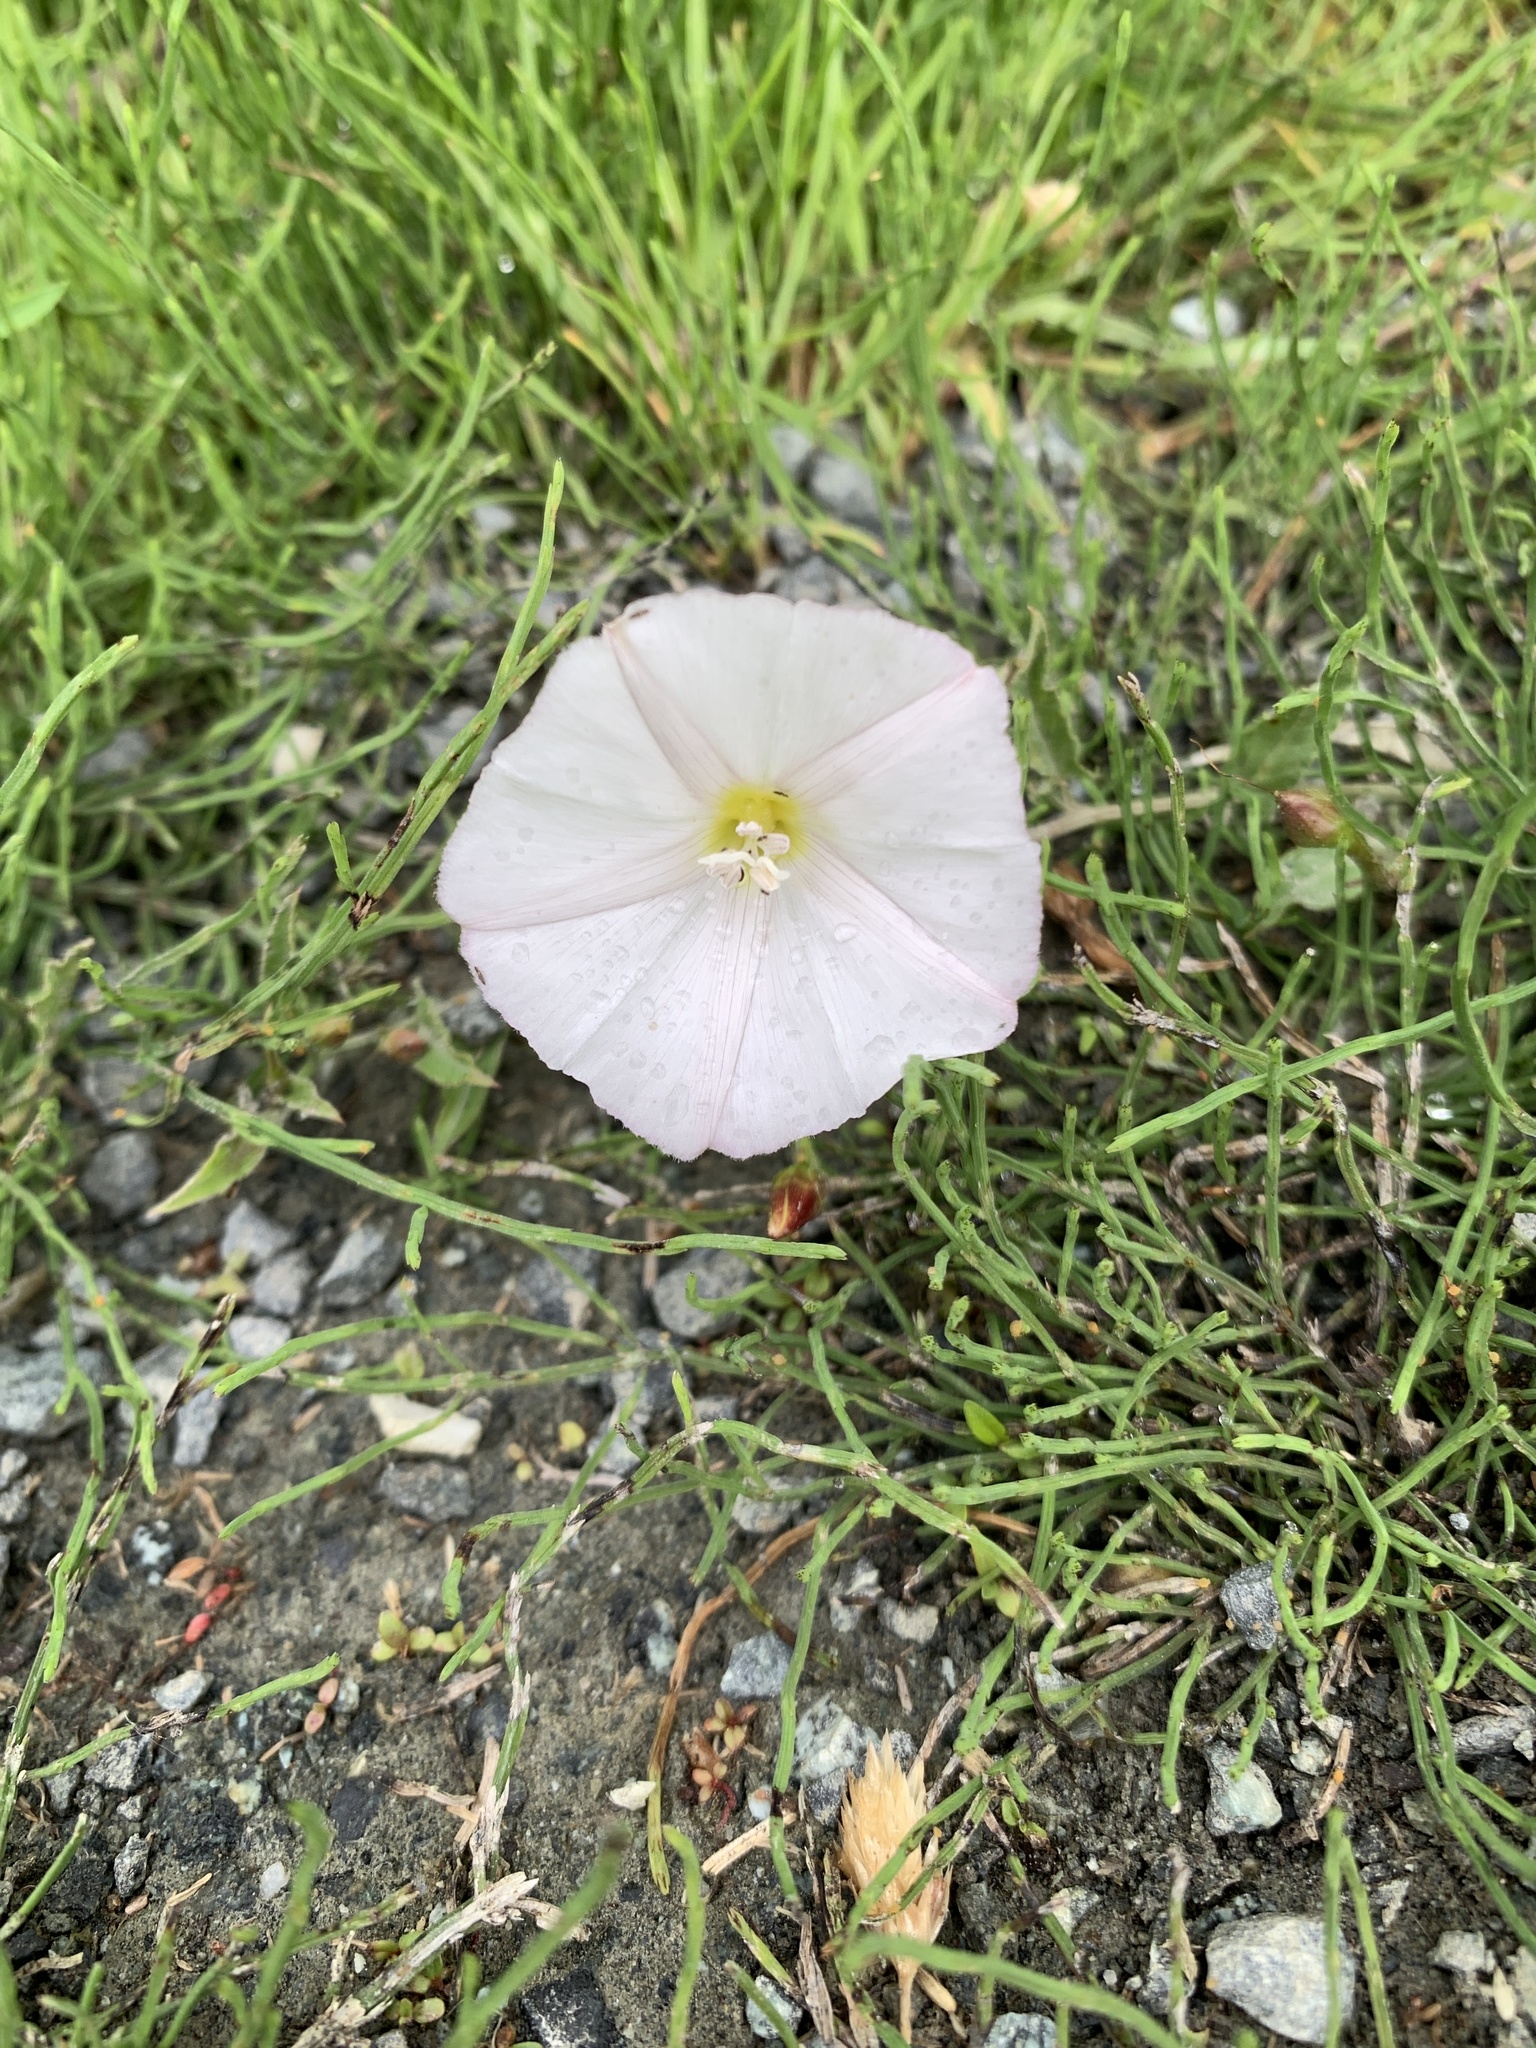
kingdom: Plantae
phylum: Tracheophyta
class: Magnoliopsida
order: Solanales
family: Convolvulaceae
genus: Convolvulus
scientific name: Convolvulus arvensis
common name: Field bindweed
